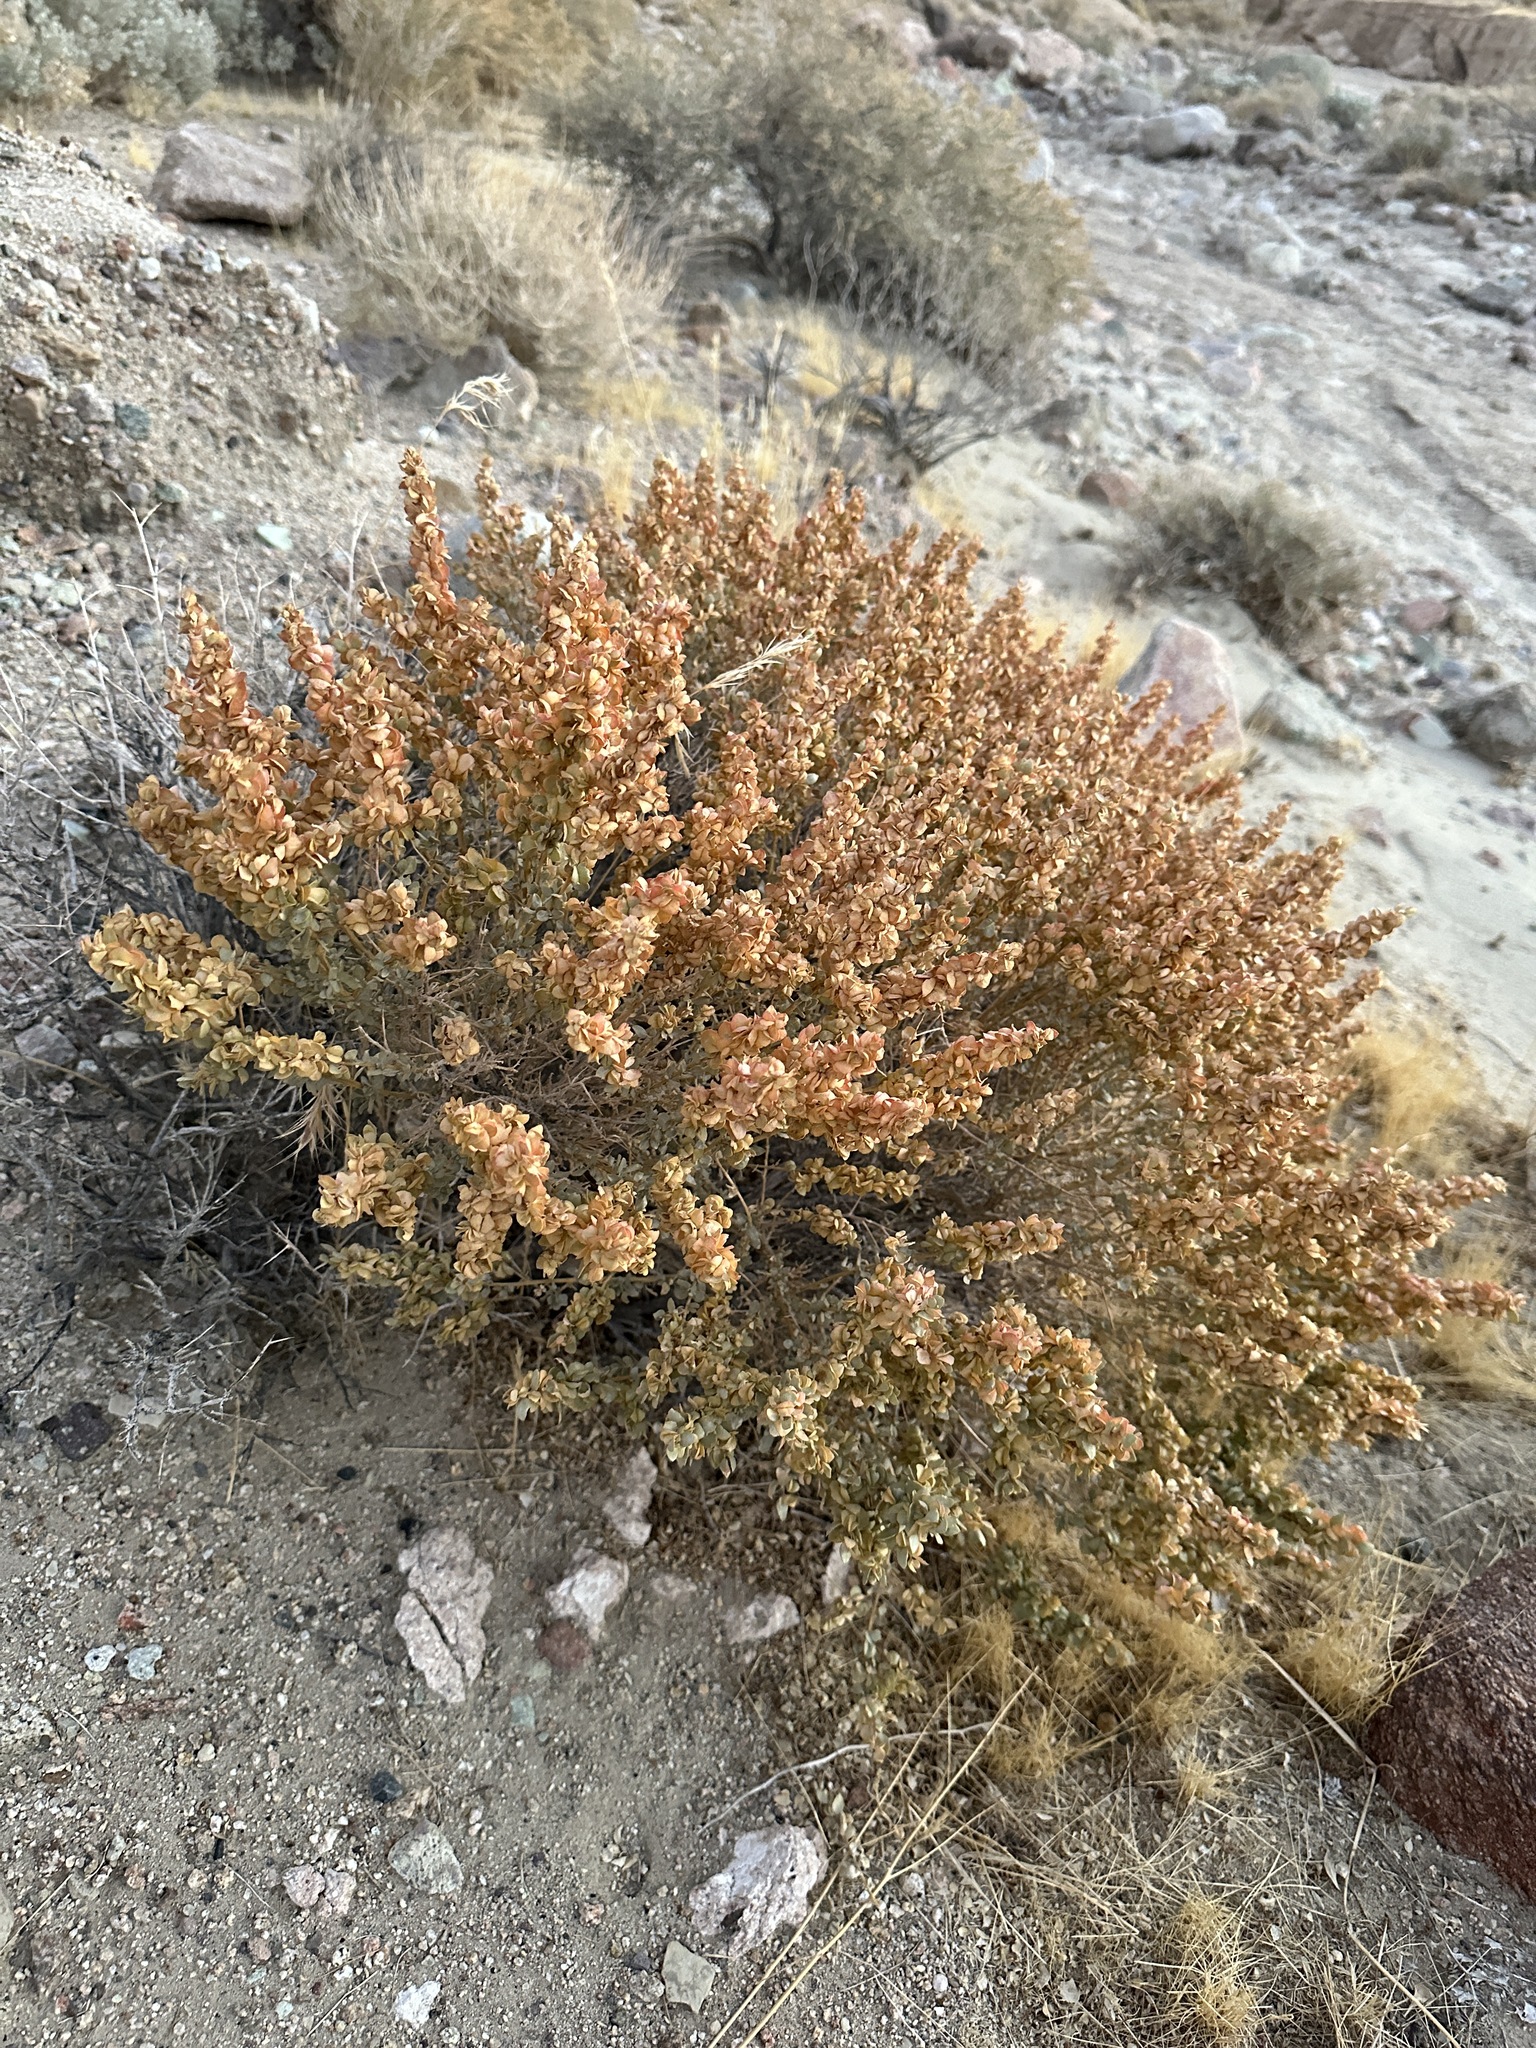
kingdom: Plantae
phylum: Tracheophyta
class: Magnoliopsida
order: Caryophyllales
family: Amaranthaceae
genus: Atriplex
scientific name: Atriplex confertifolia
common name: Shadscale
